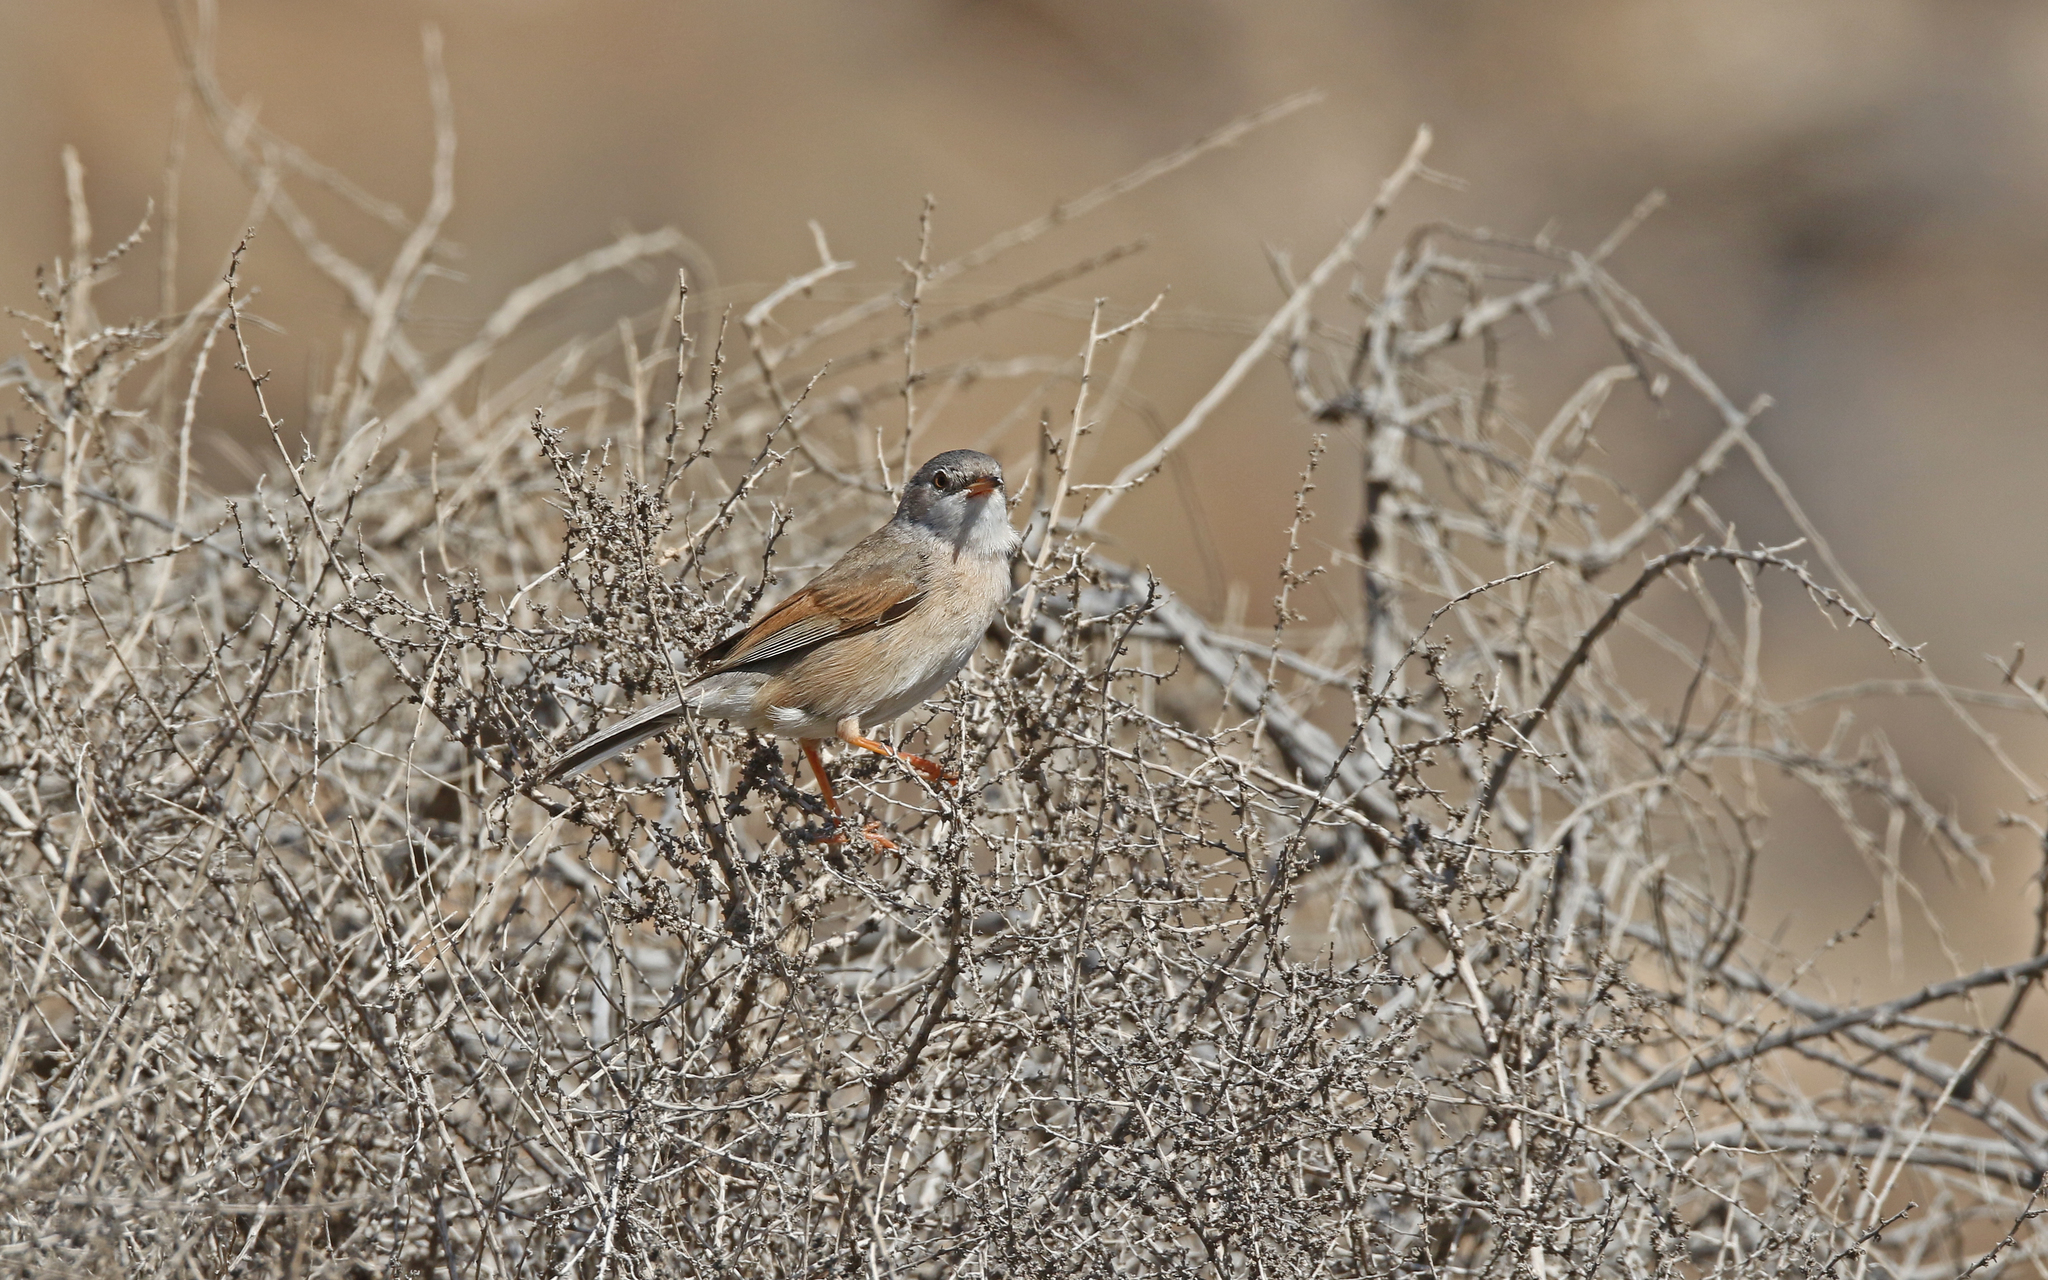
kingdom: Animalia
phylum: Chordata
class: Aves
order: Passeriformes
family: Sylviidae
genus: Sylvia
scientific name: Sylvia conspicillata
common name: Spectacled warbler
